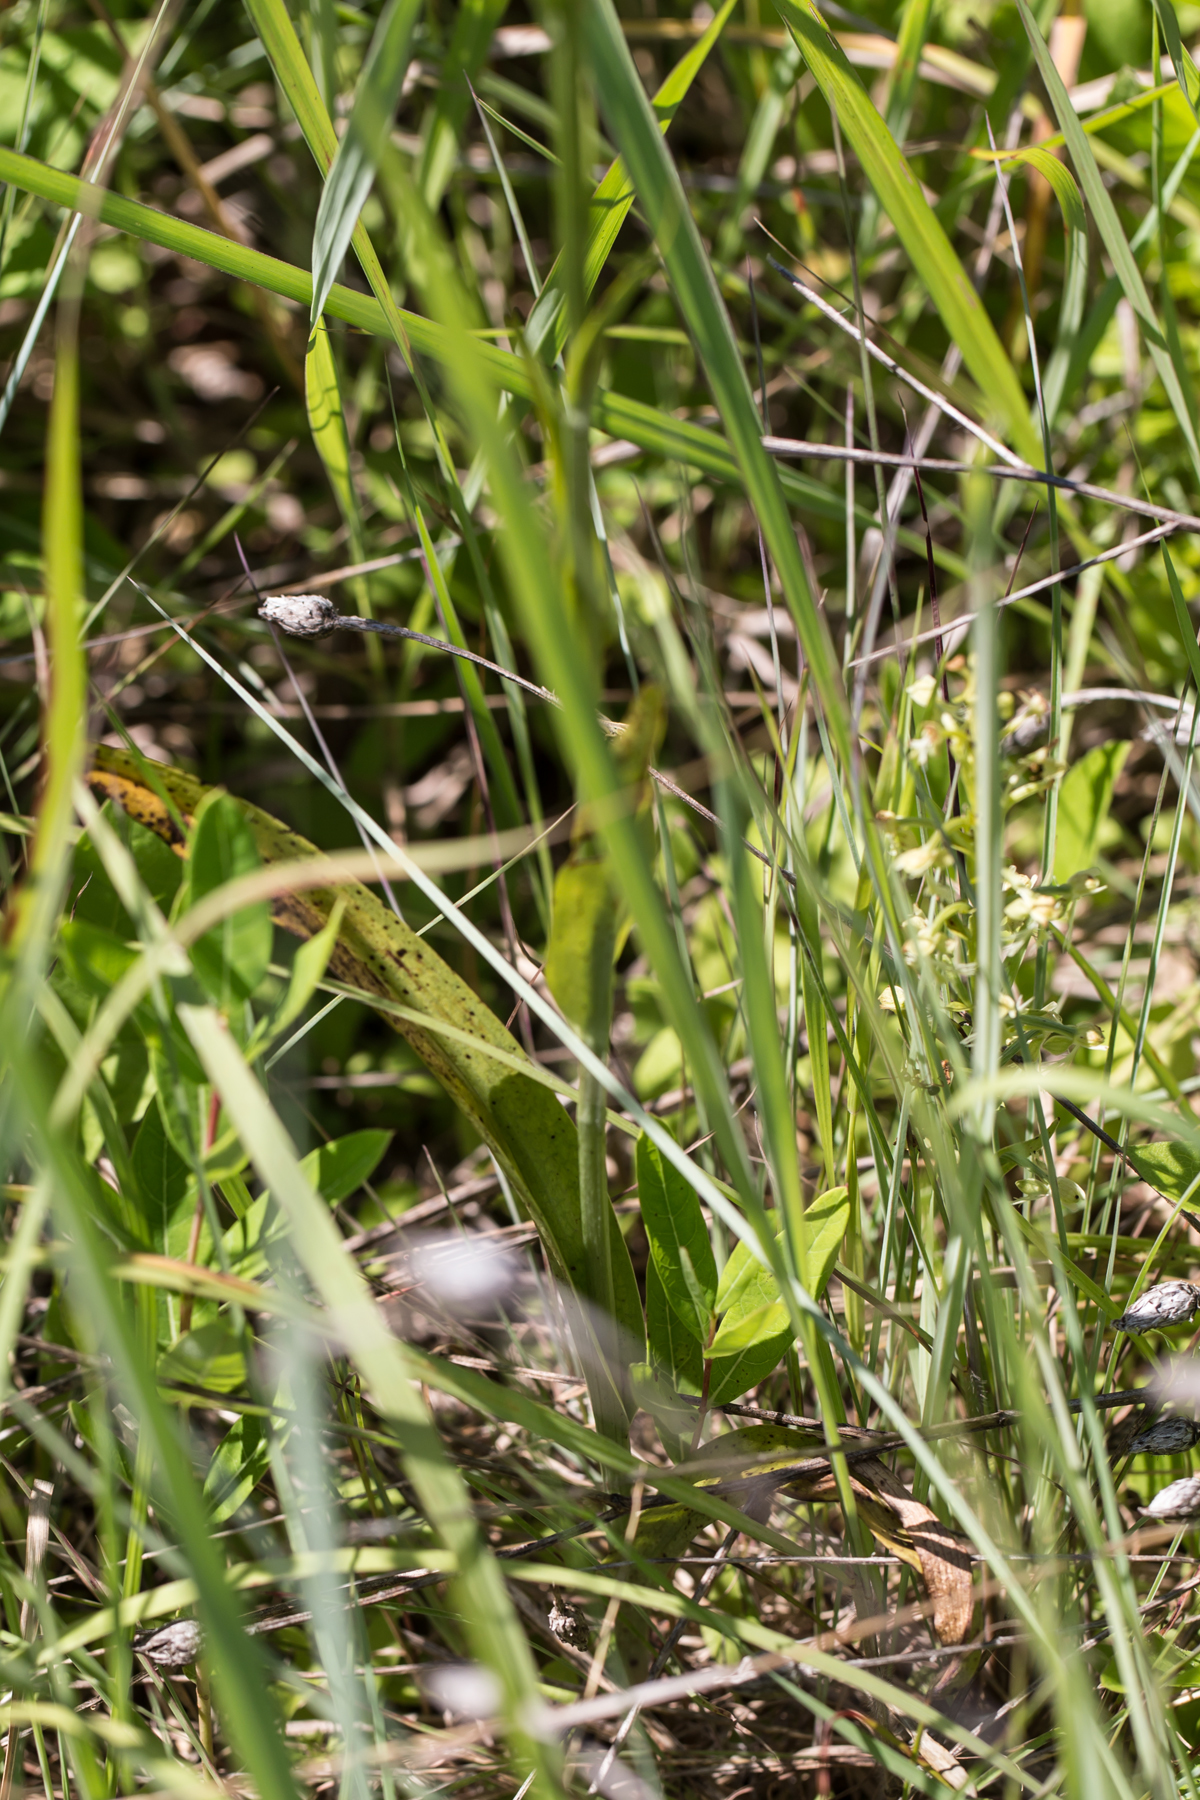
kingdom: Plantae
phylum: Tracheophyta
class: Liliopsida
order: Asparagales
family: Orchidaceae
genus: Platanthera
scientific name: Platanthera lacera
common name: Green fringed orchid
